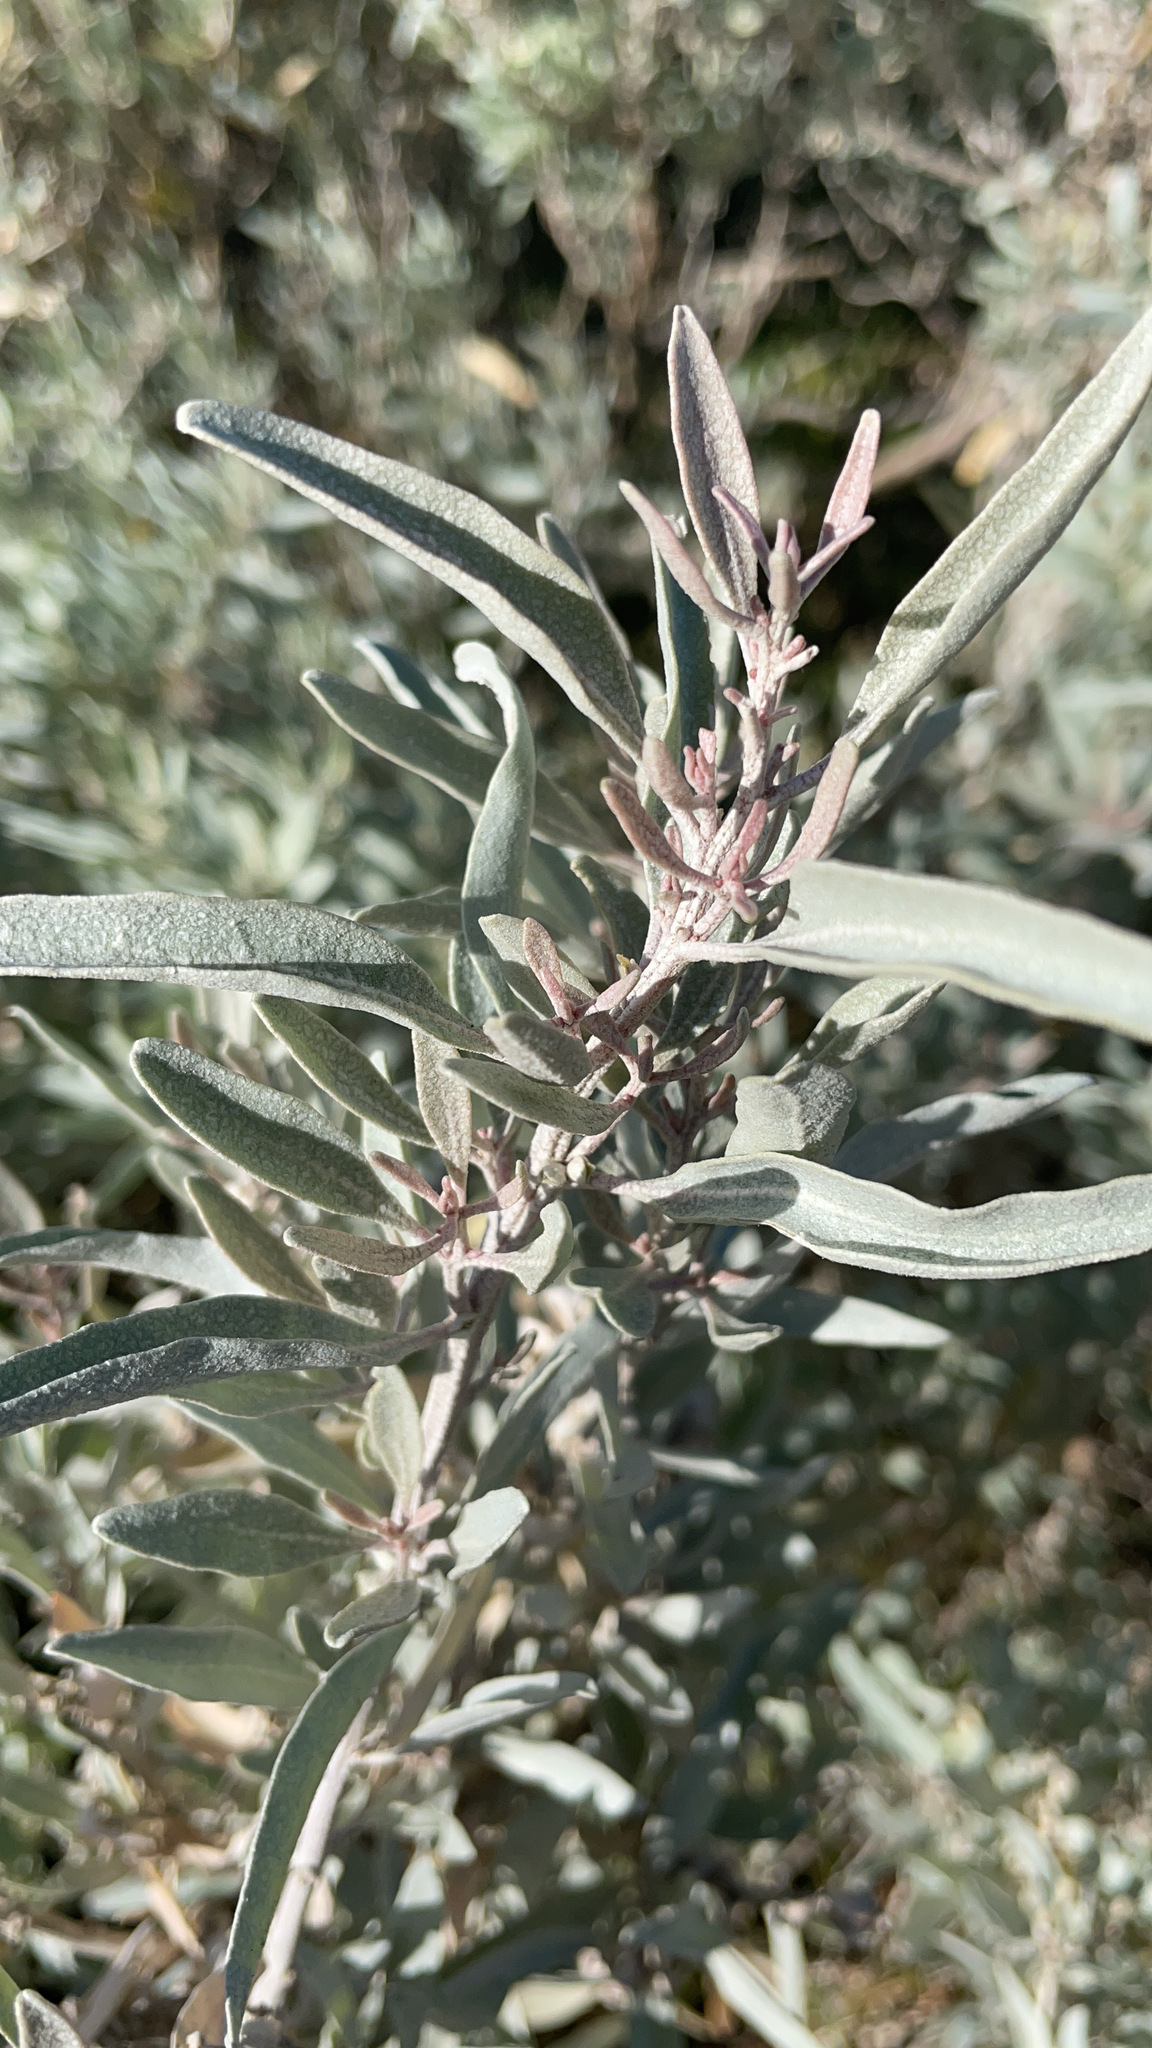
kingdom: Plantae
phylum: Tracheophyta
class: Magnoliopsida
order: Caryophyllales
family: Amaranthaceae
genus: Atriplex
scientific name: Atriplex cinerea
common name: Grey saltbush
